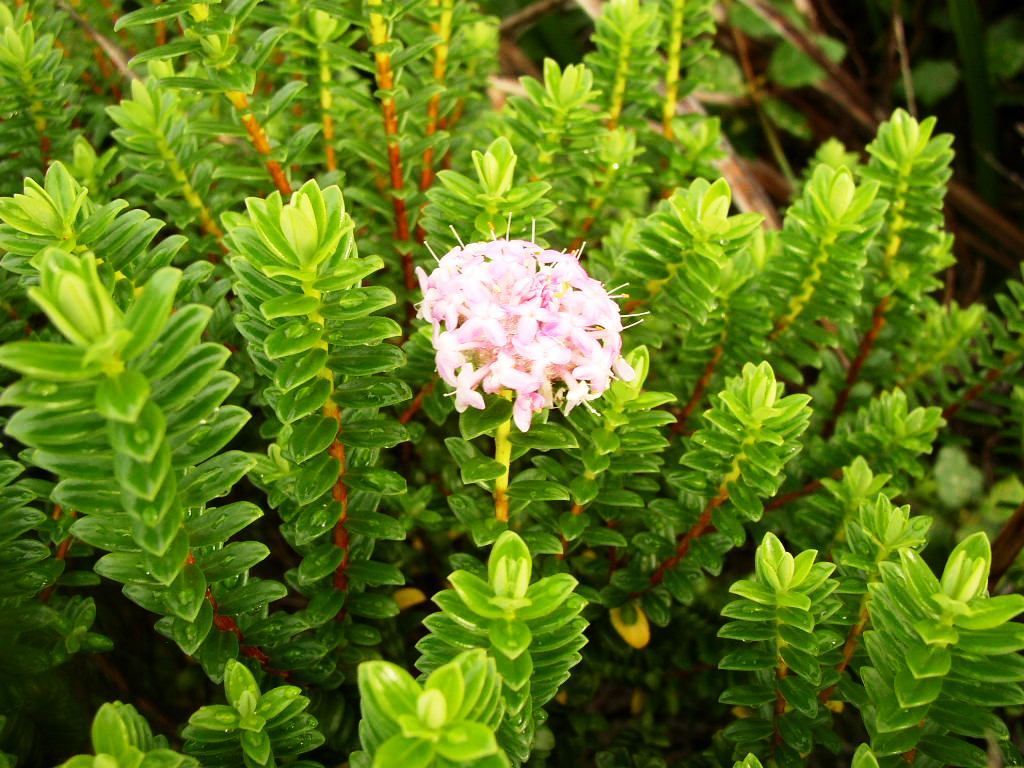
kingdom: Plantae
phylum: Tracheophyta
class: Magnoliopsida
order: Malvales
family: Thymelaeaceae
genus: Pimelea
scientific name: Pimelea ferruginea
